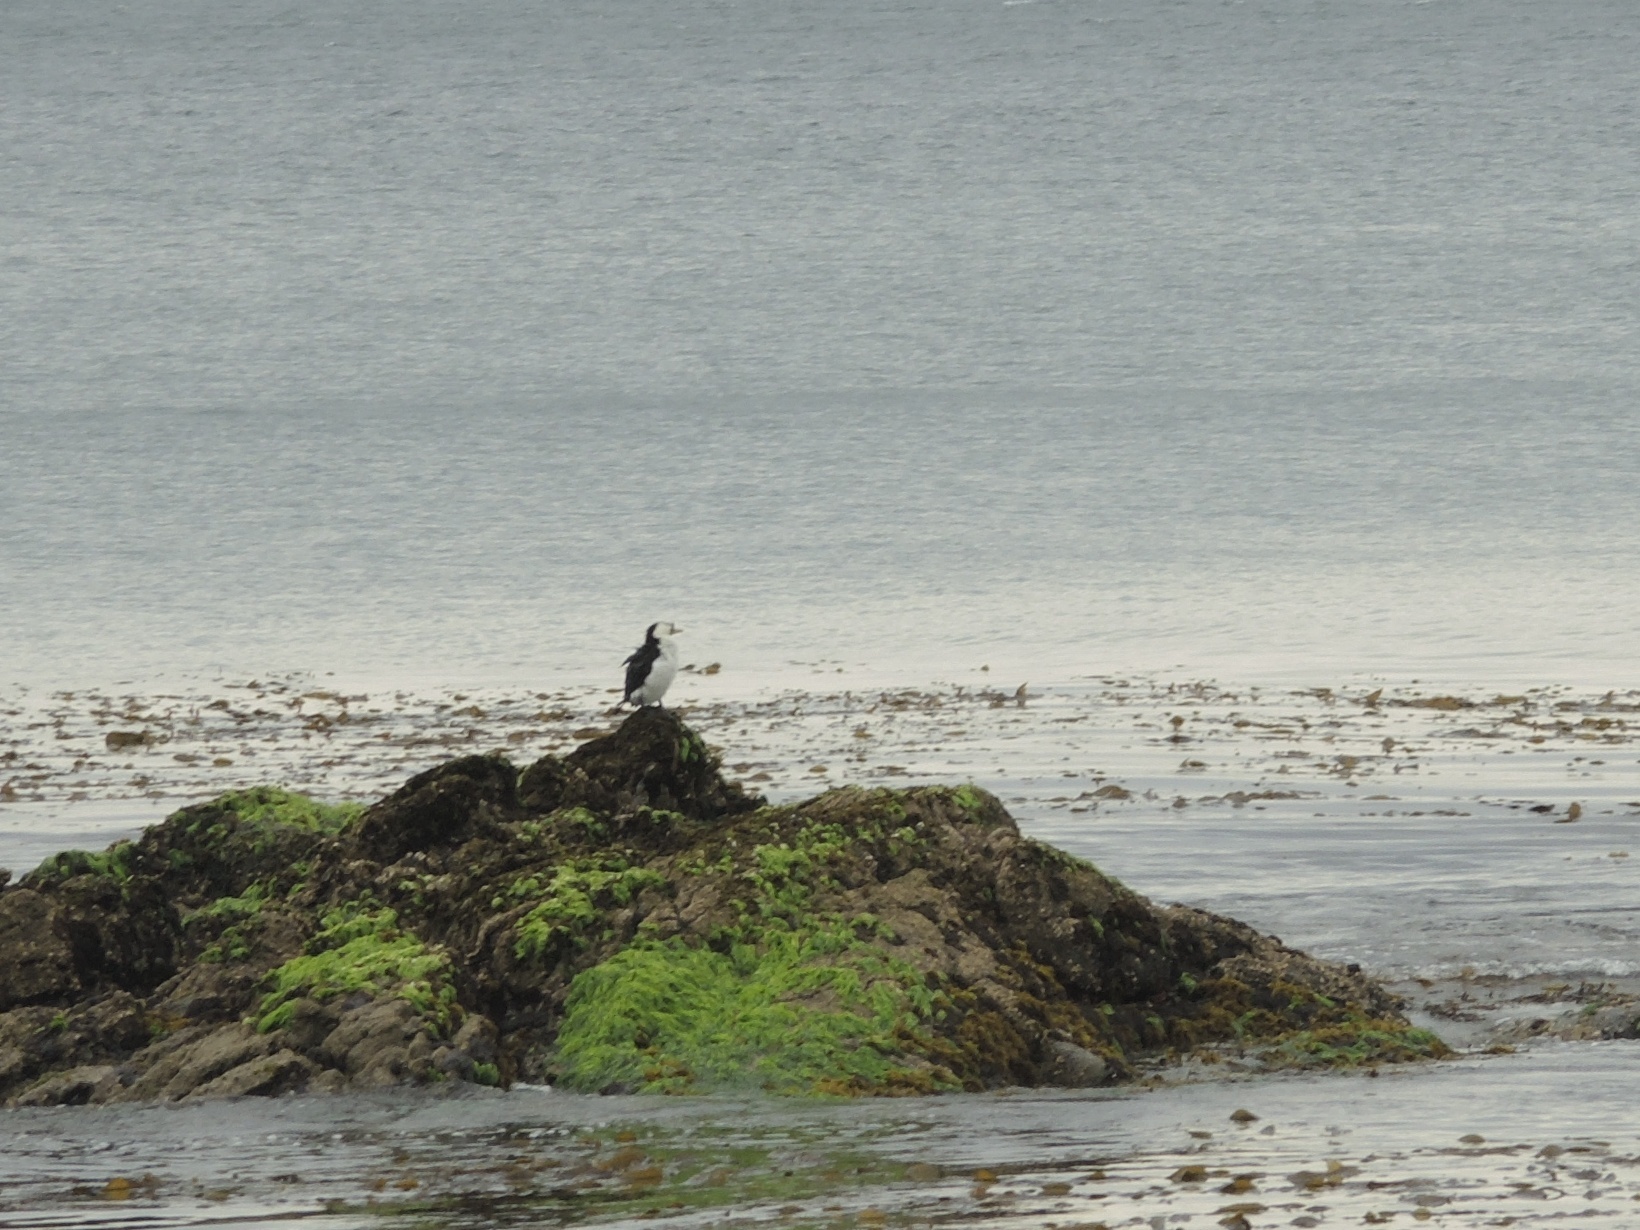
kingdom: Animalia
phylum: Chordata
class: Aves
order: Suliformes
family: Phalacrocoracidae
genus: Microcarbo
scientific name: Microcarbo melanoleucos
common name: Little pied cormorant
